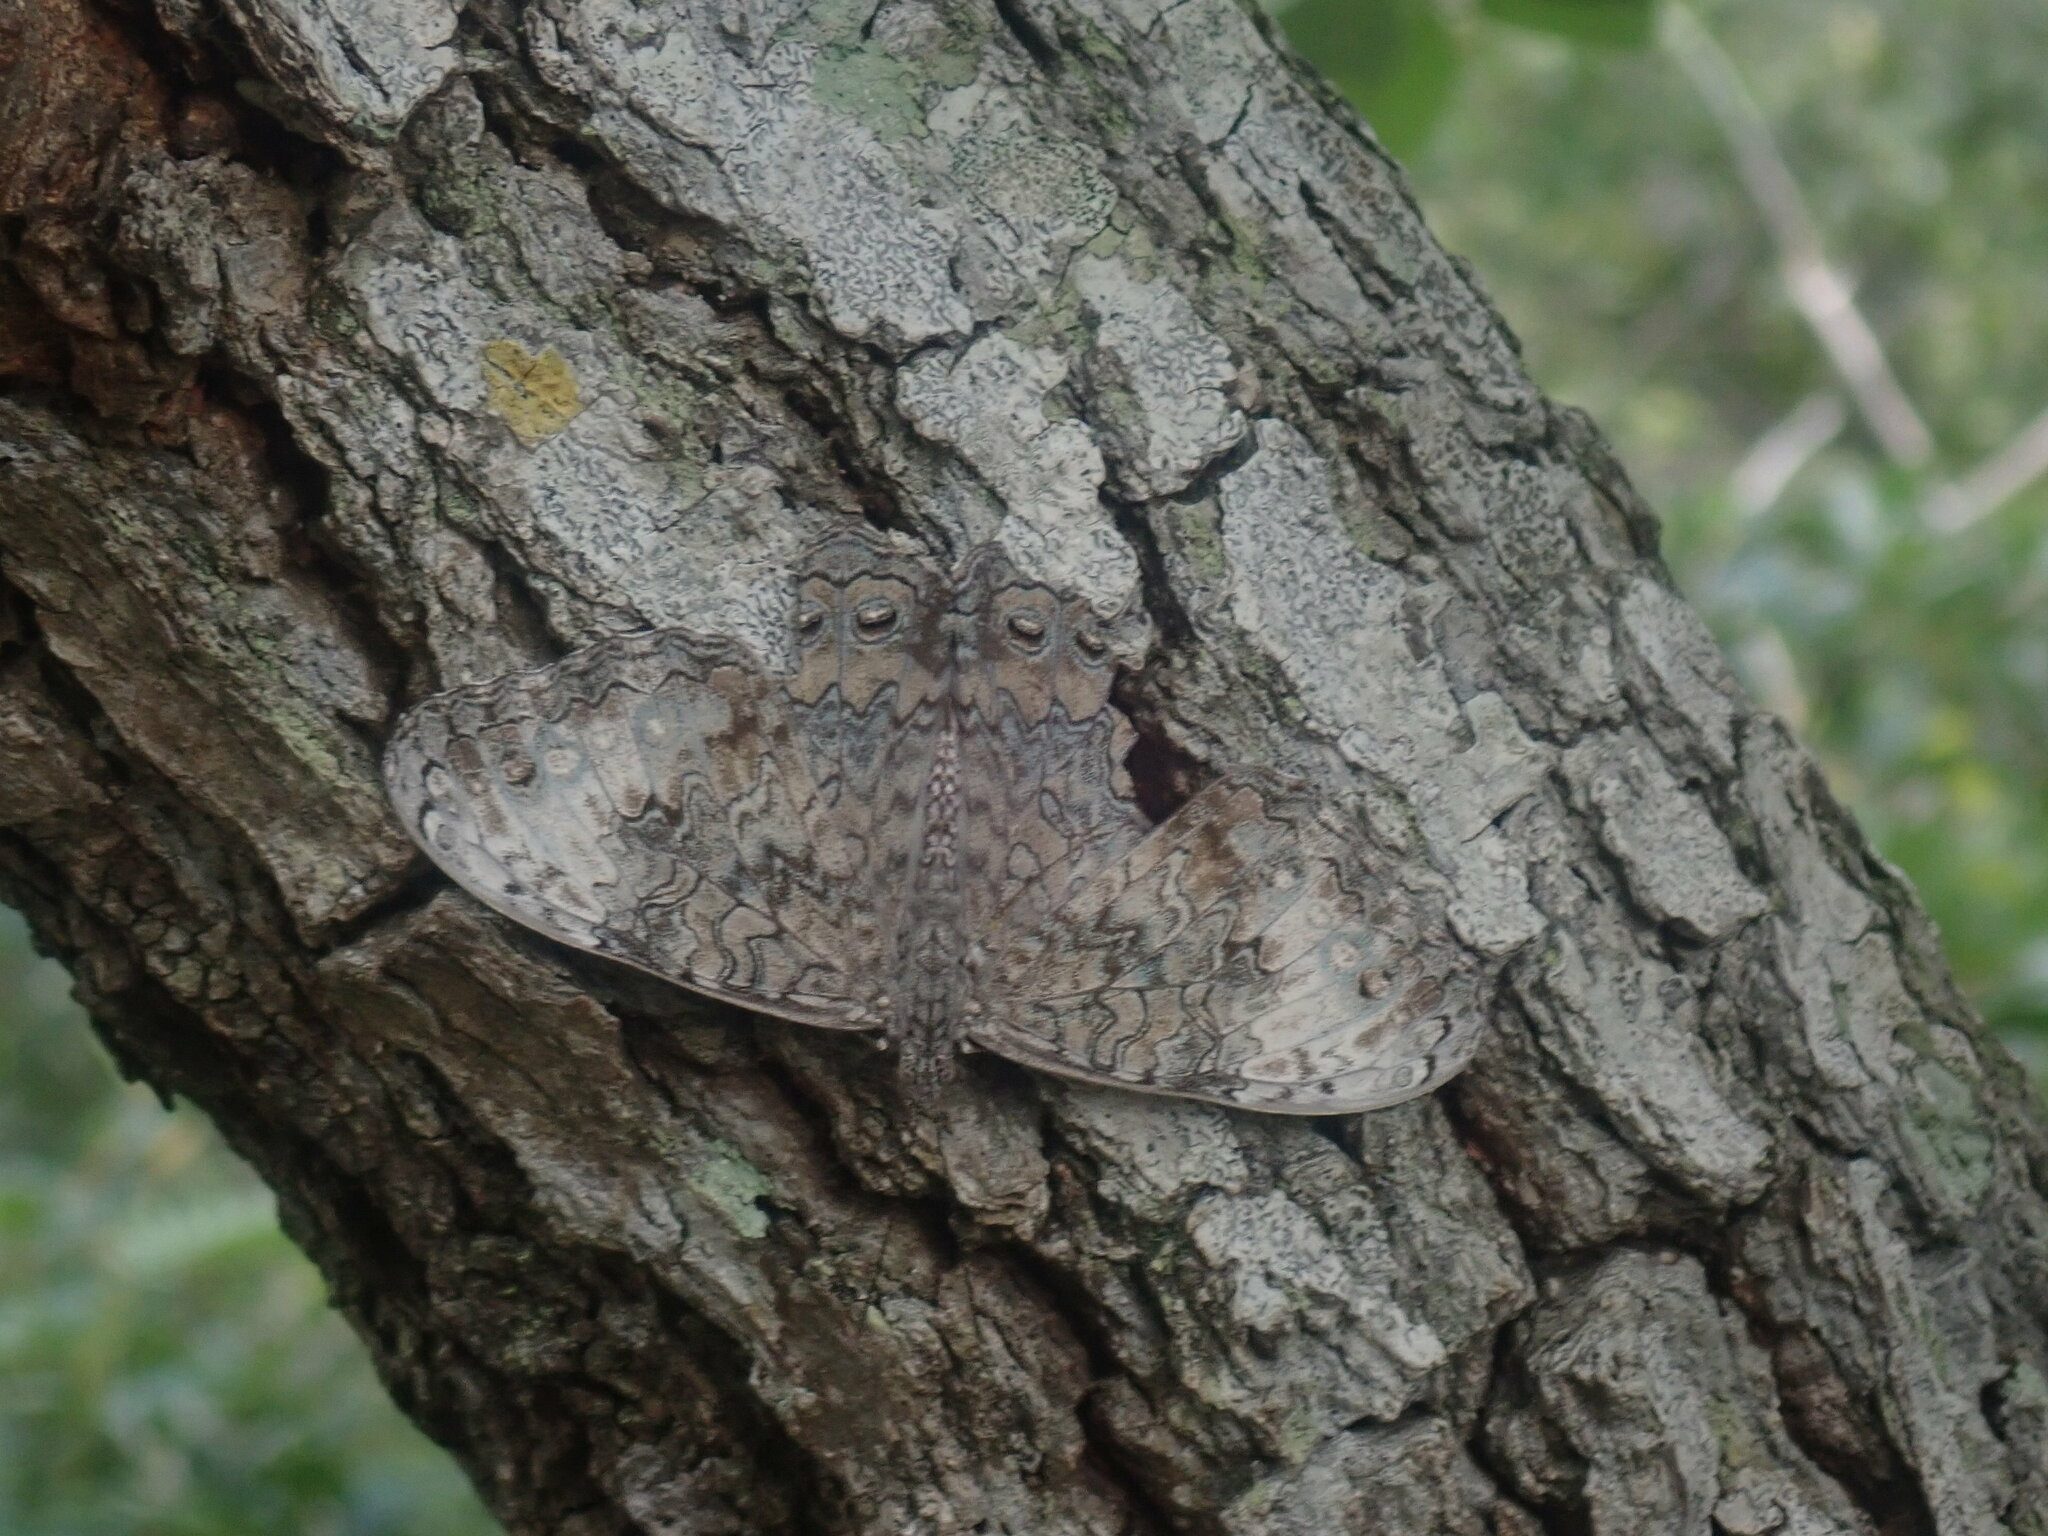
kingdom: Animalia
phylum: Arthropoda
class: Insecta
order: Lepidoptera
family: Nymphalidae
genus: Hamadryas
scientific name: Hamadryas glauconome
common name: Glaucous cracker
